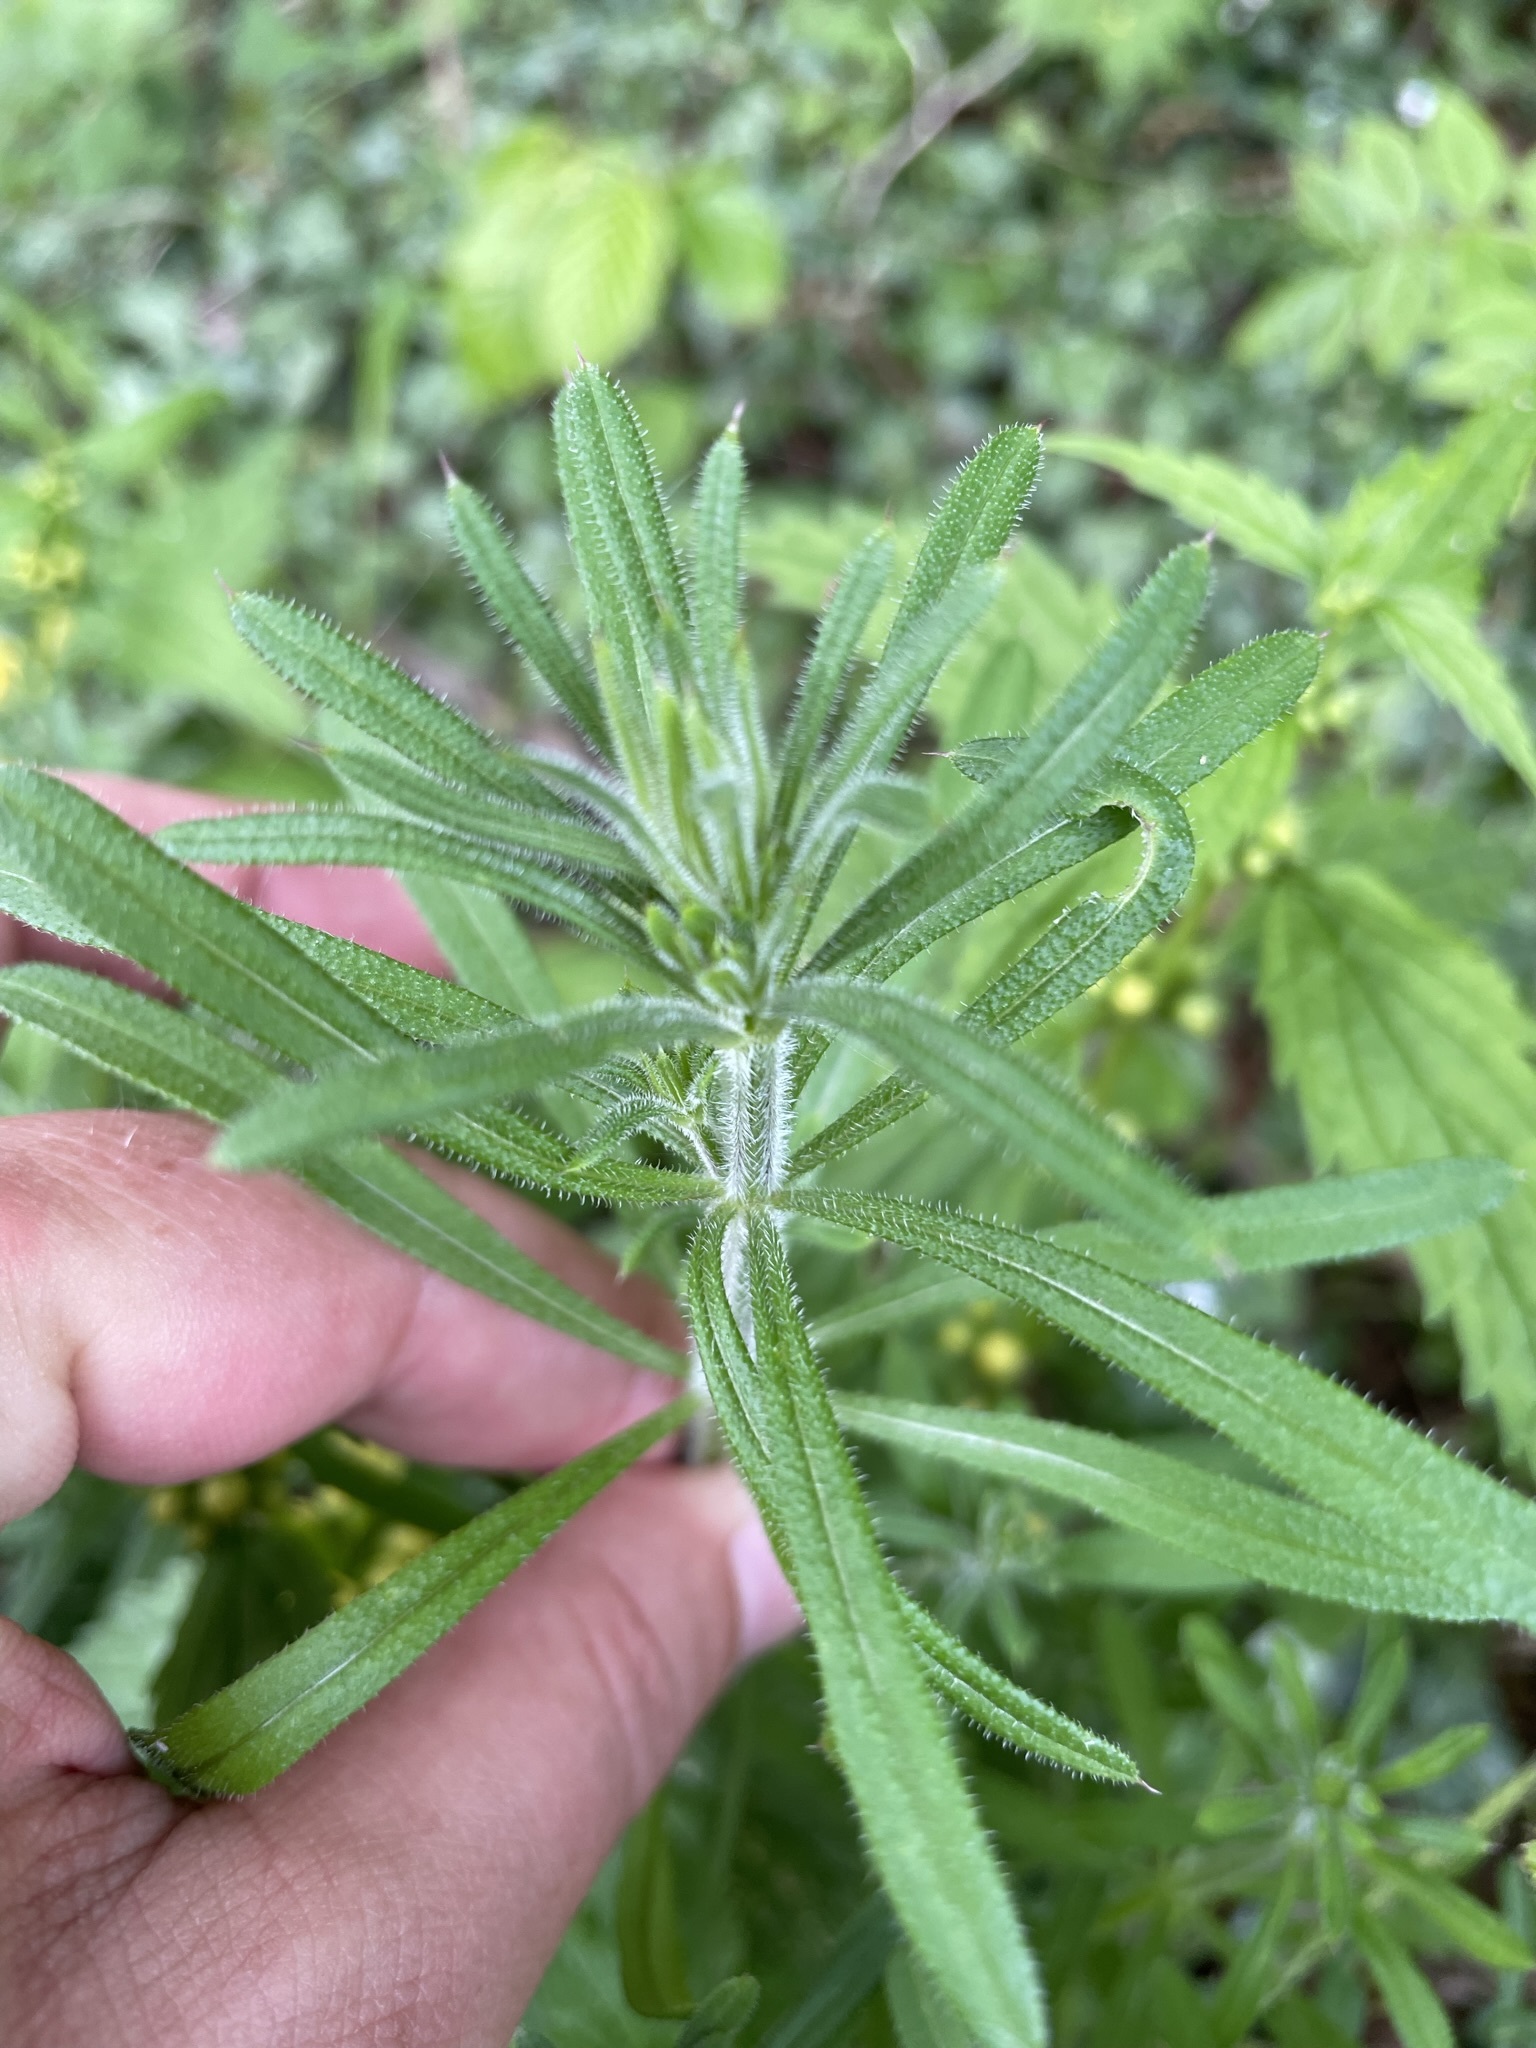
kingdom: Plantae
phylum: Tracheophyta
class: Magnoliopsida
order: Gentianales
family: Rubiaceae
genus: Galium
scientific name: Galium aparine
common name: Cleavers
